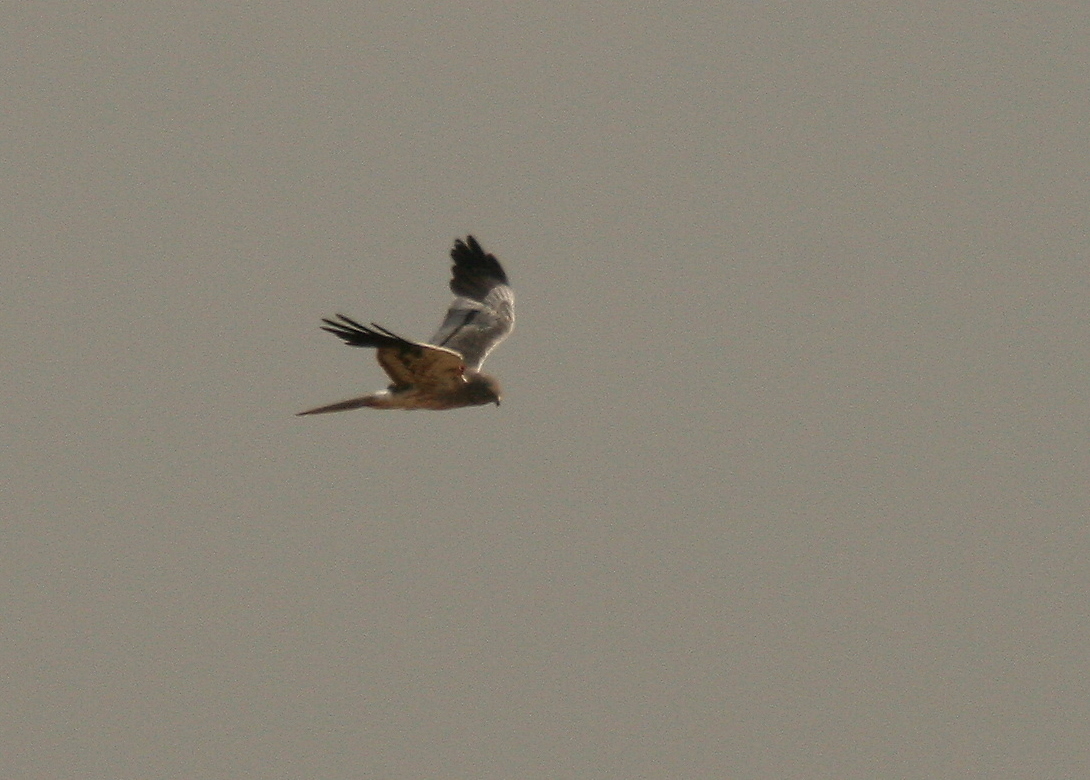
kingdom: Animalia
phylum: Chordata
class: Aves
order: Accipitriformes
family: Accipitridae
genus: Circus
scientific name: Circus pygargus
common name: Montagu's harrier
